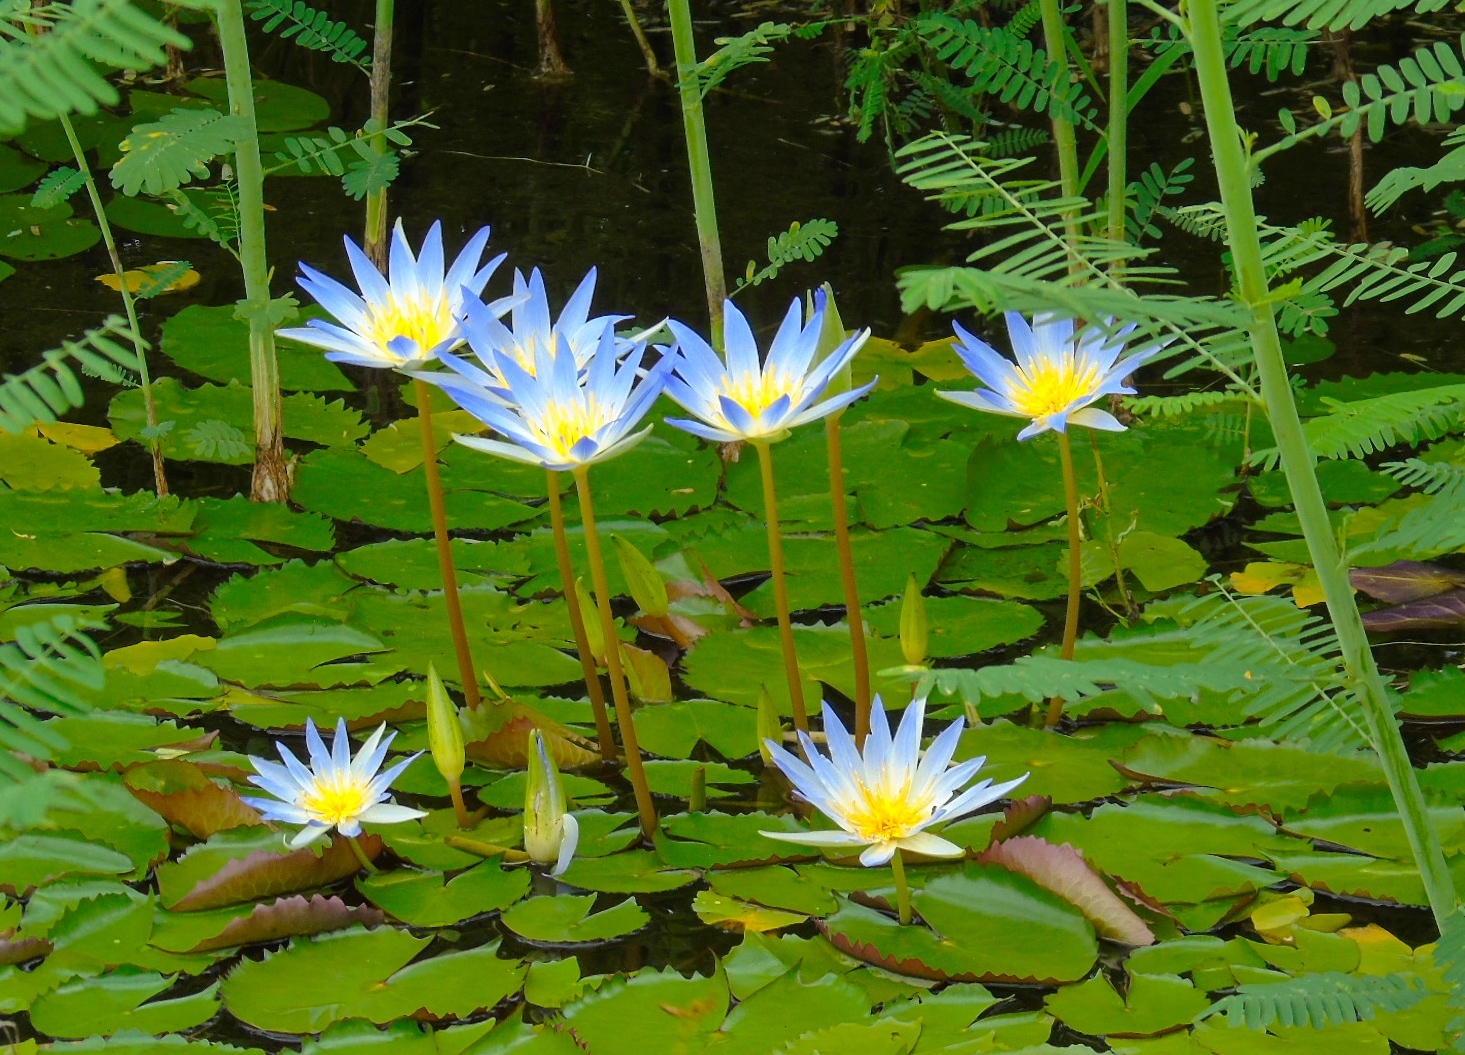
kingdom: Plantae
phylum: Tracheophyta
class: Magnoliopsida
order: Nymphaeales
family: Nymphaeaceae
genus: Nymphaea
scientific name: Nymphaea
